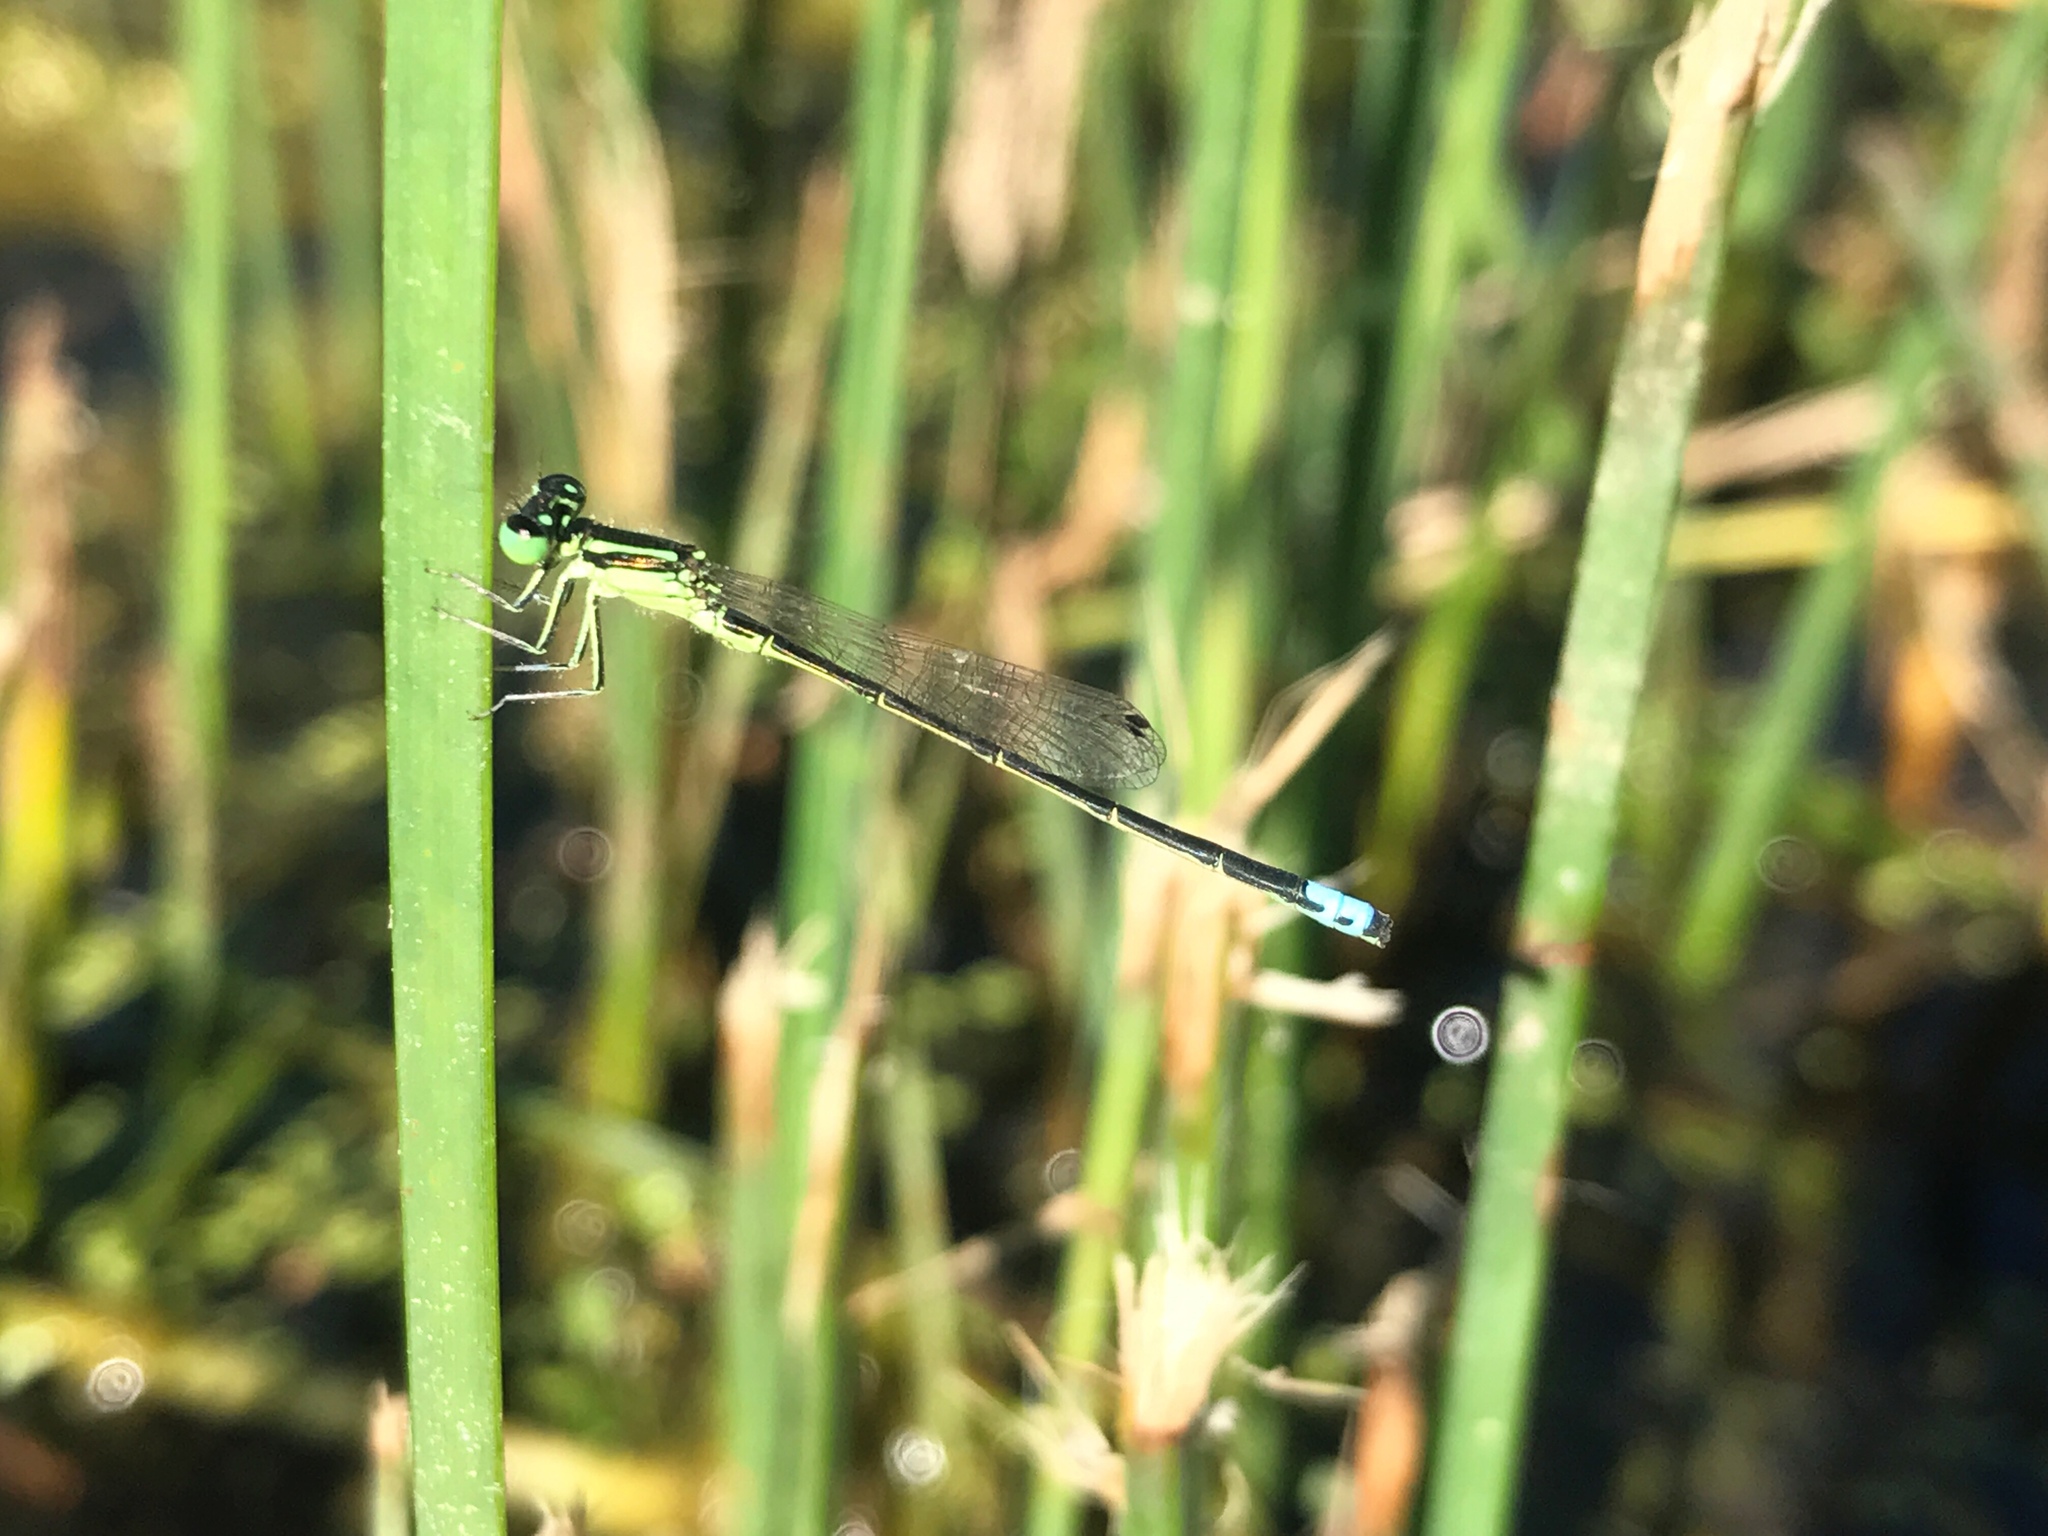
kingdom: Animalia
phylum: Arthropoda
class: Insecta
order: Odonata
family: Coenagrionidae
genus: Ischnura
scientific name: Ischnura verticalis
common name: Eastern forktail
